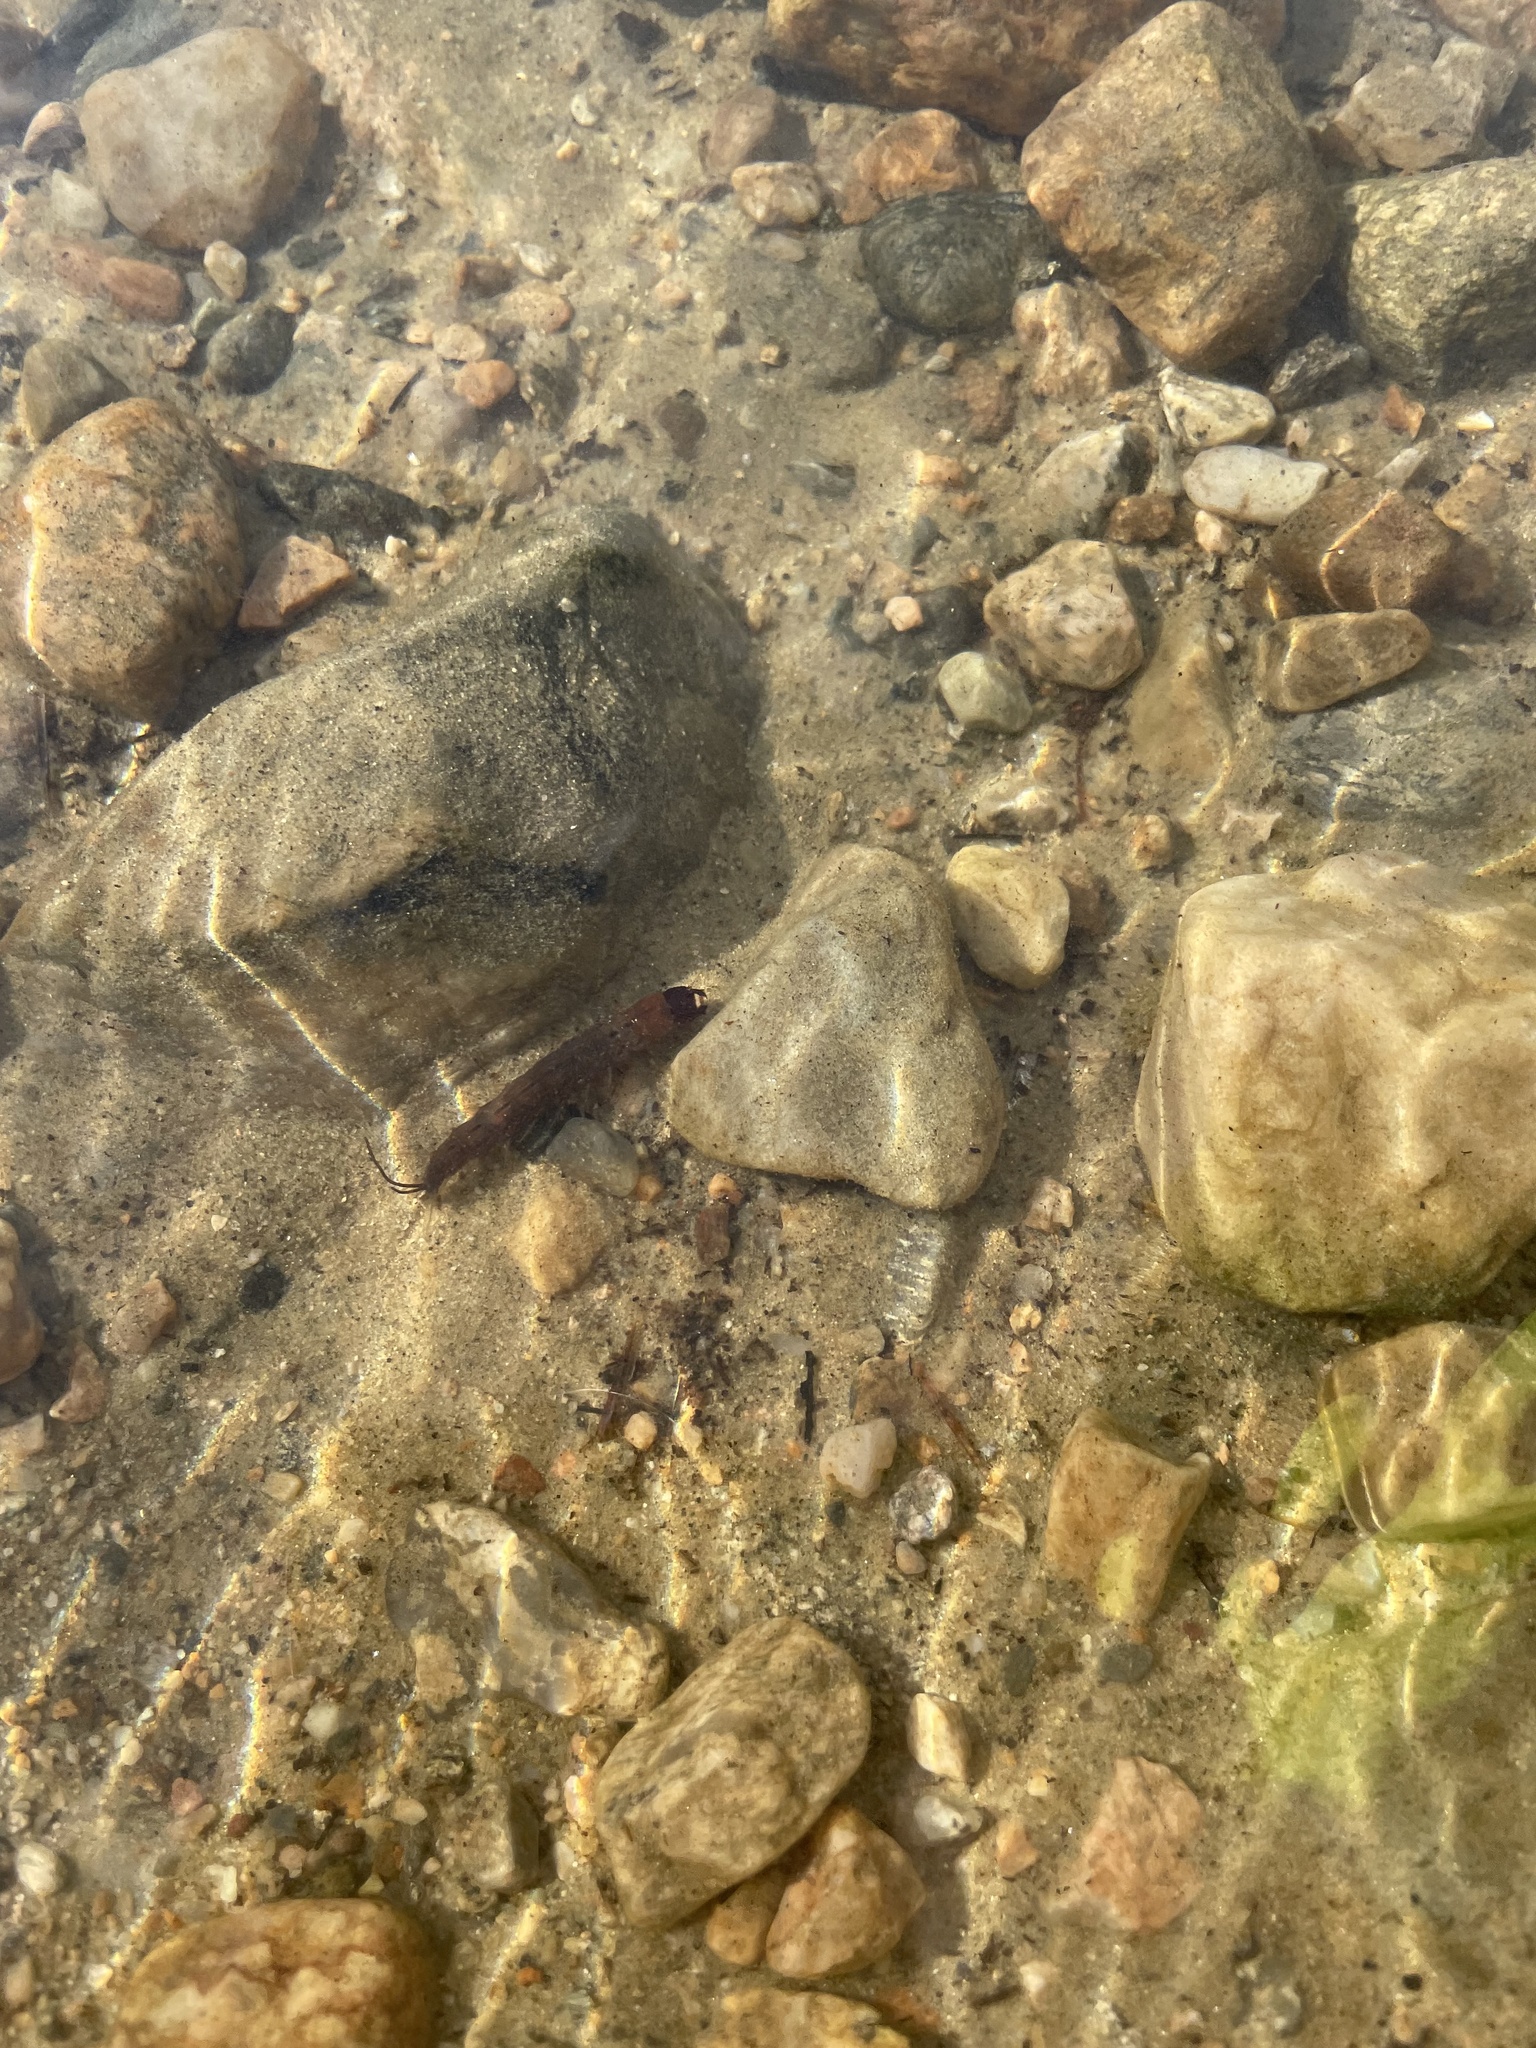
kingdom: Animalia
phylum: Arthropoda
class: Insecta
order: Megaloptera
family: Corydalidae
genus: Chauliodes
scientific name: Chauliodes rastricornis
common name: Spring fishfly
